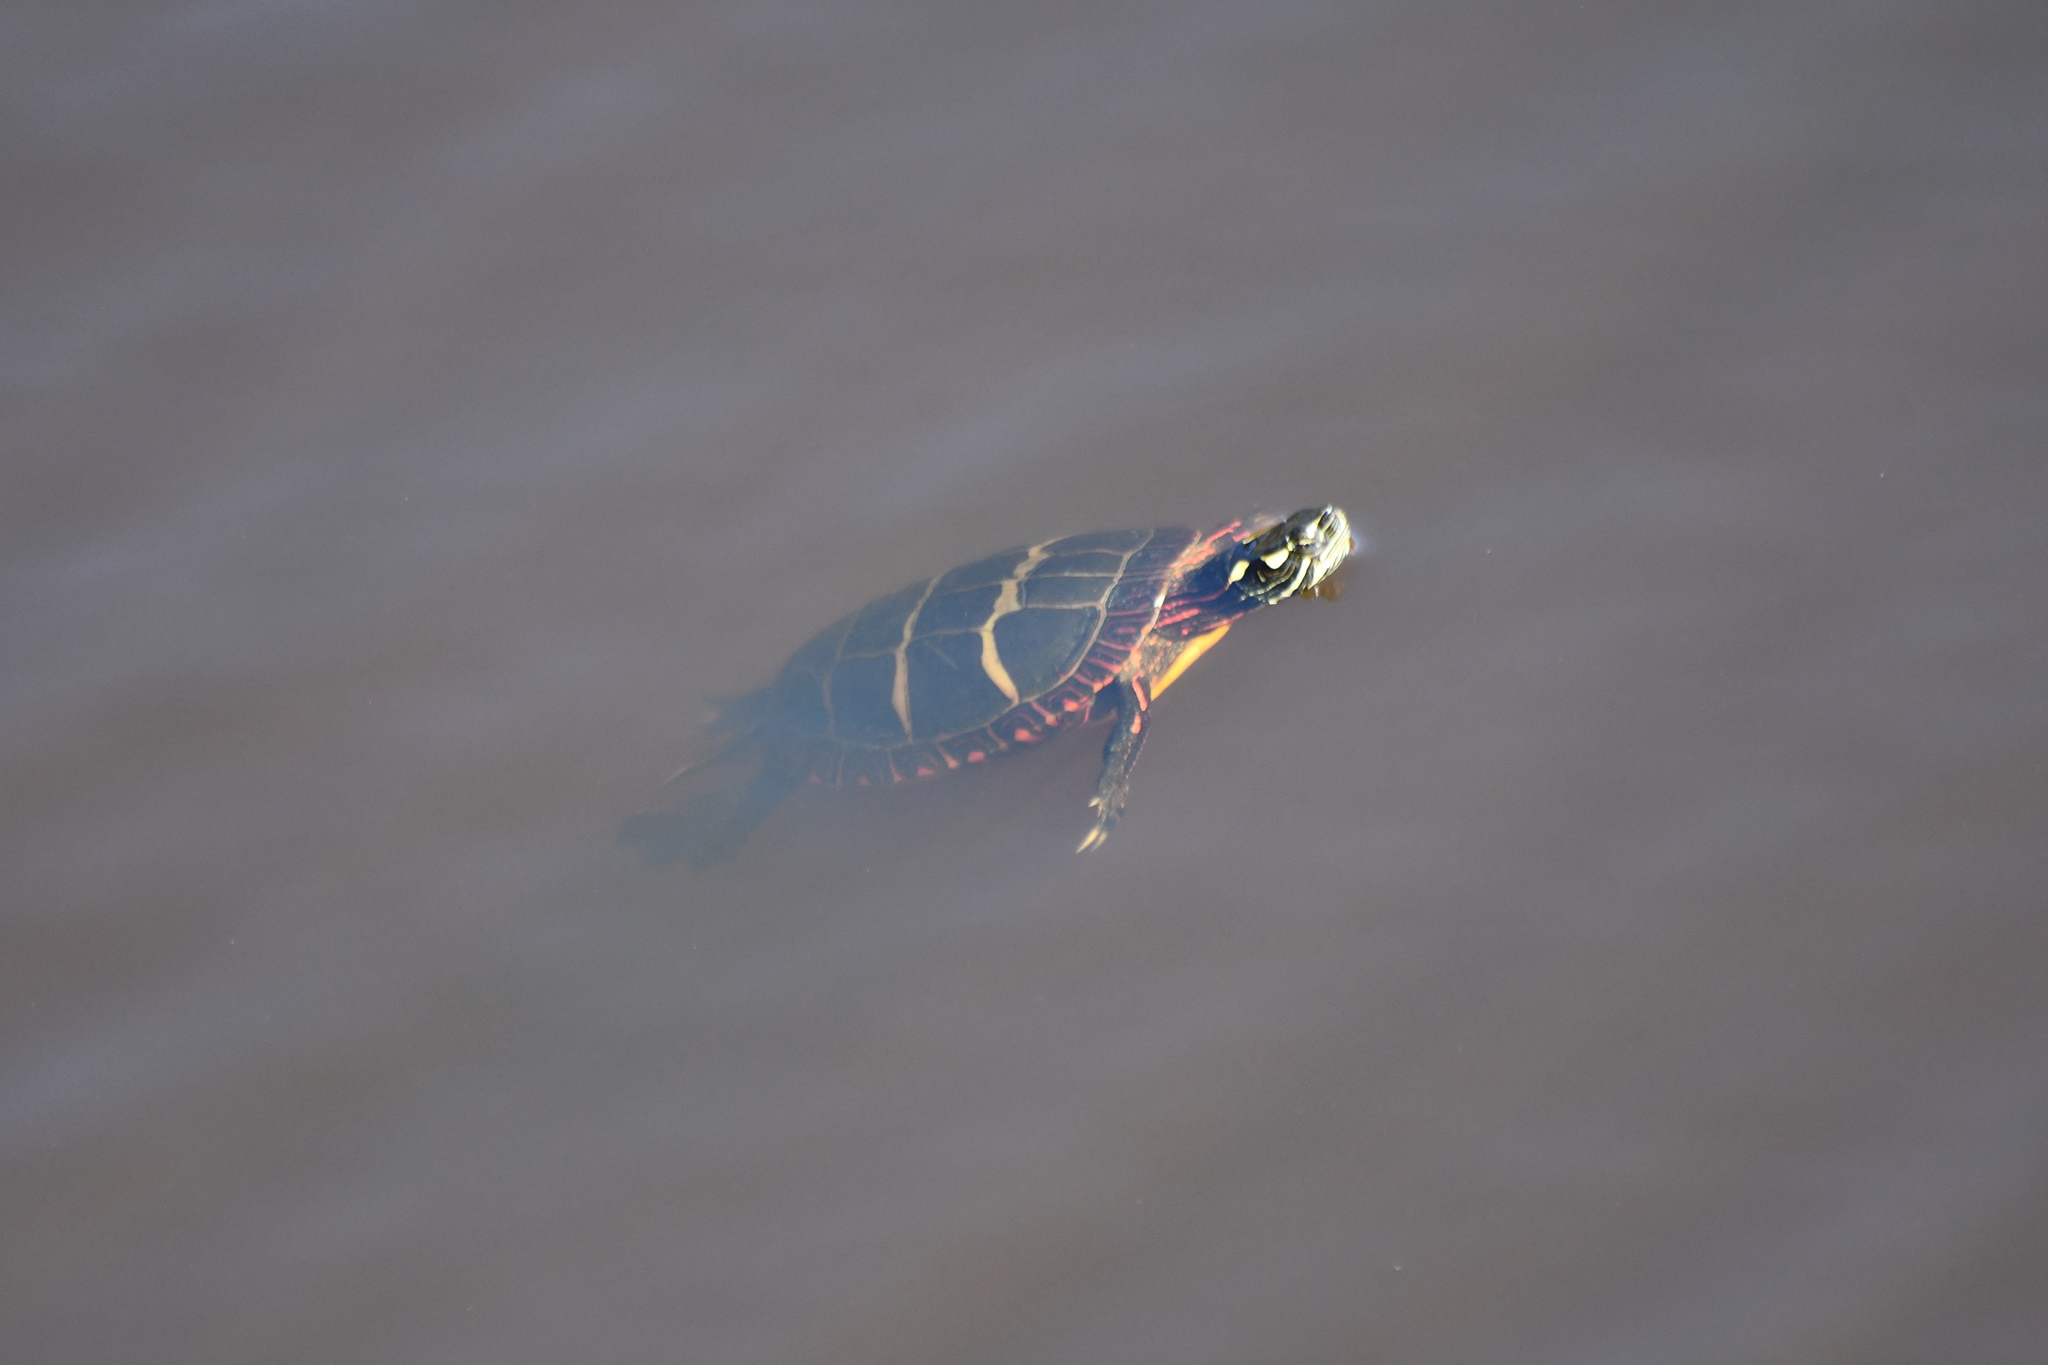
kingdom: Animalia
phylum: Chordata
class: Testudines
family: Emydidae
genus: Chrysemys
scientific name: Chrysemys picta
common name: Painted turtle
